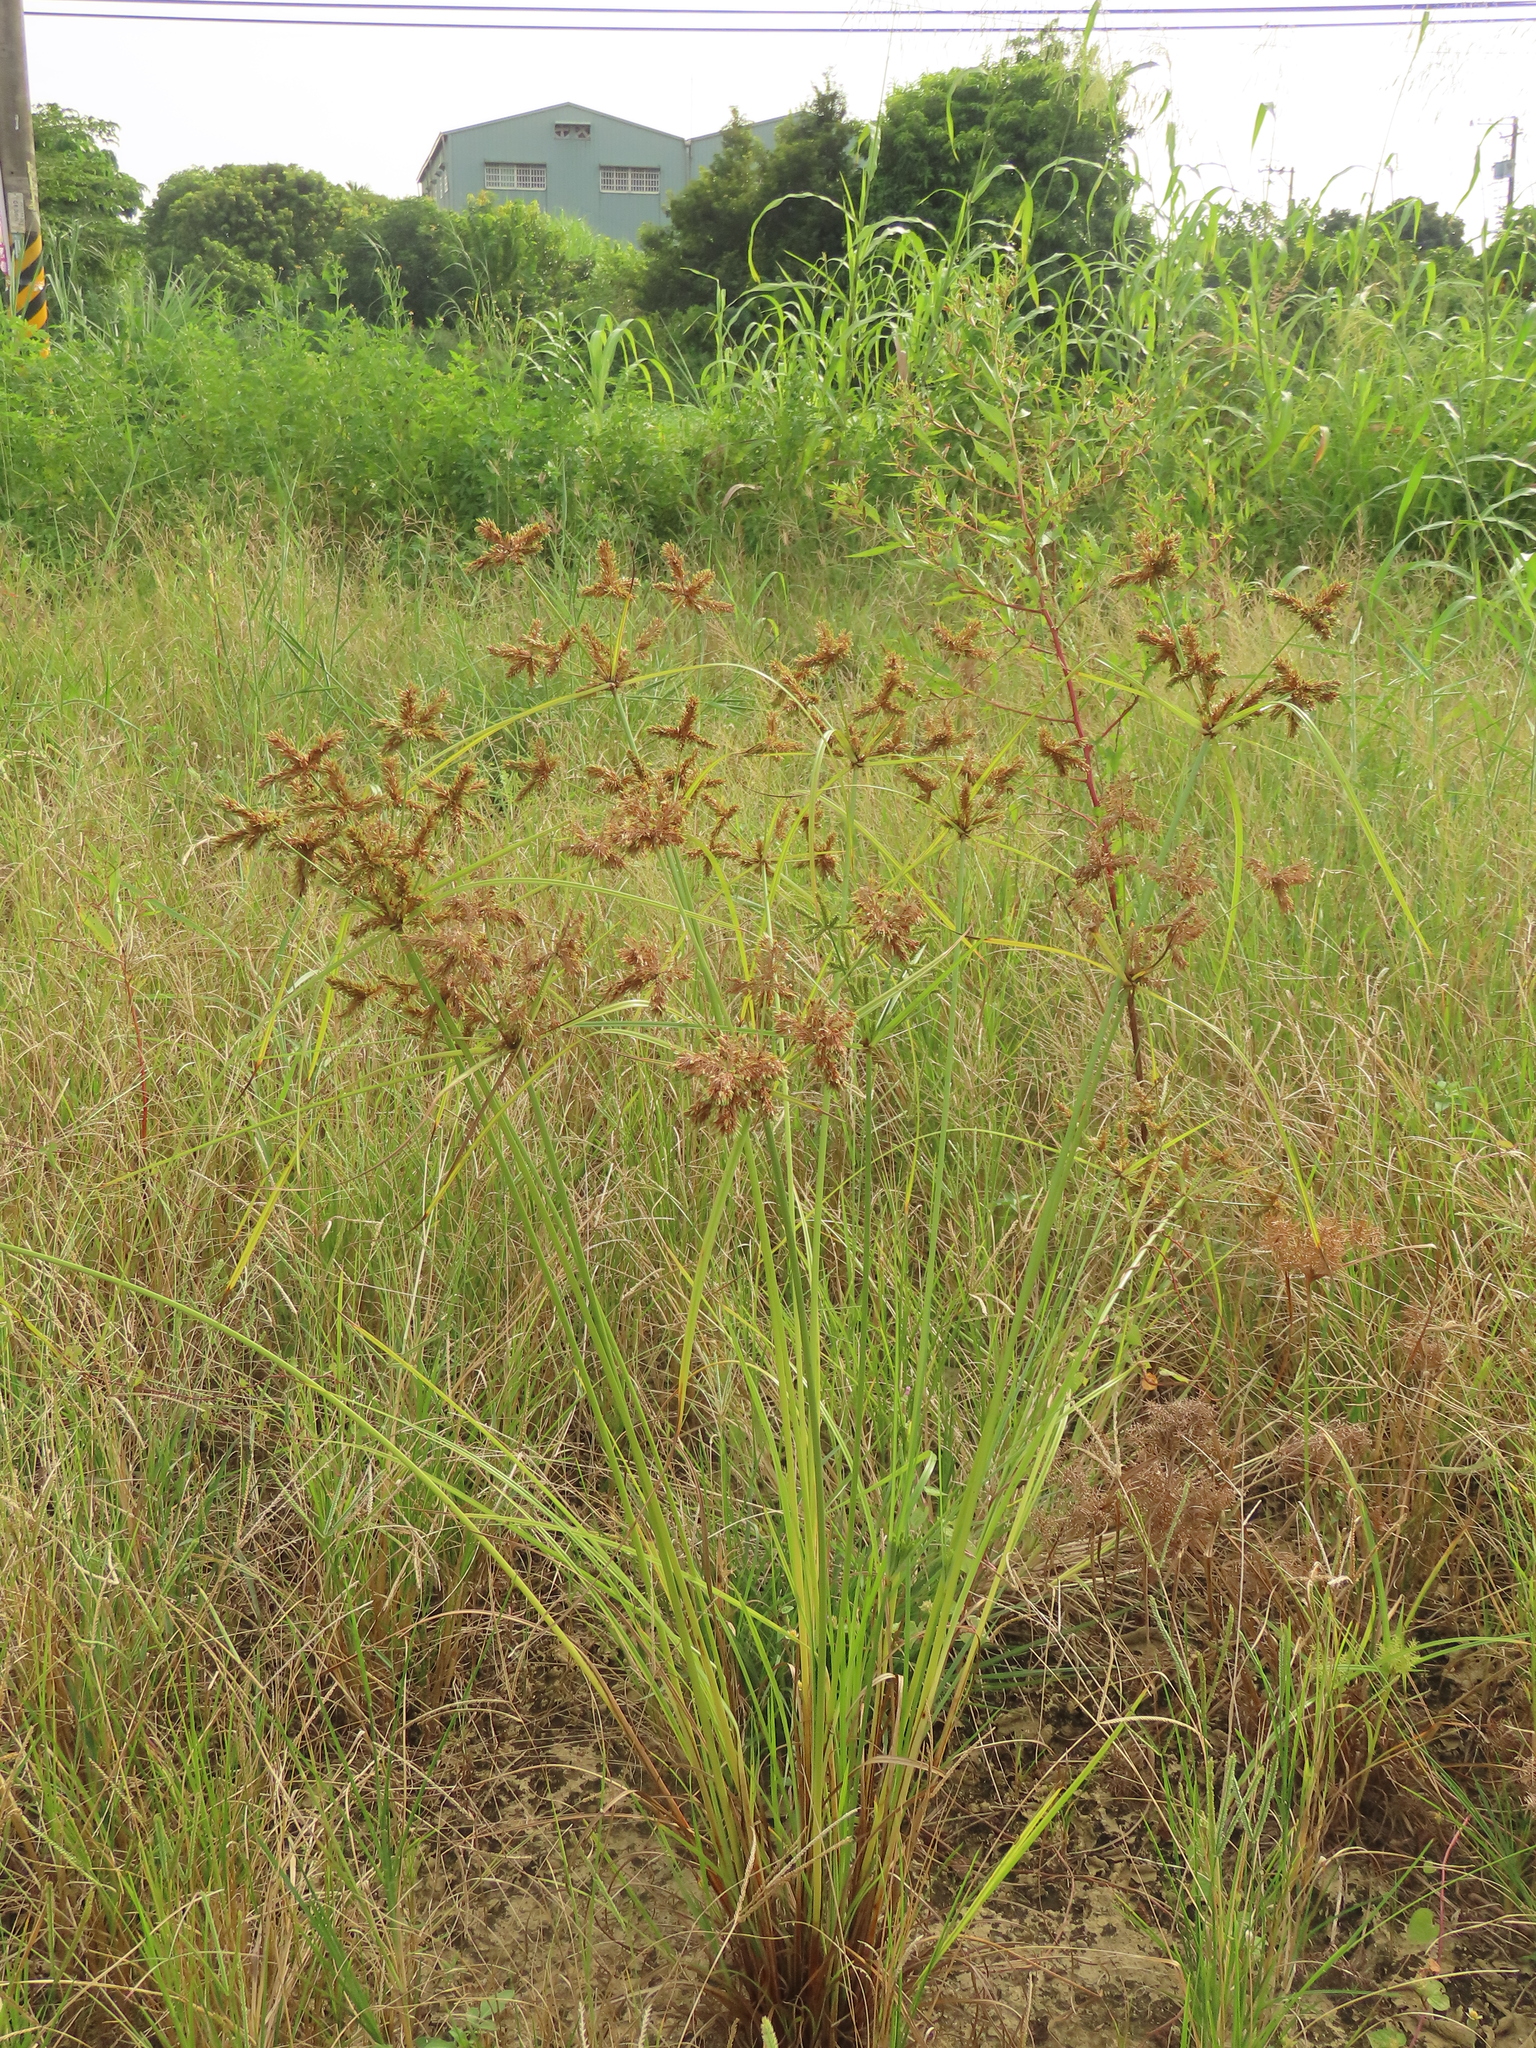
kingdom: Plantae
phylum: Tracheophyta
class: Liliopsida
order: Poales
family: Cyperaceae
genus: Cyperus
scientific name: Cyperus imbricatus
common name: Shingle flatsedge
